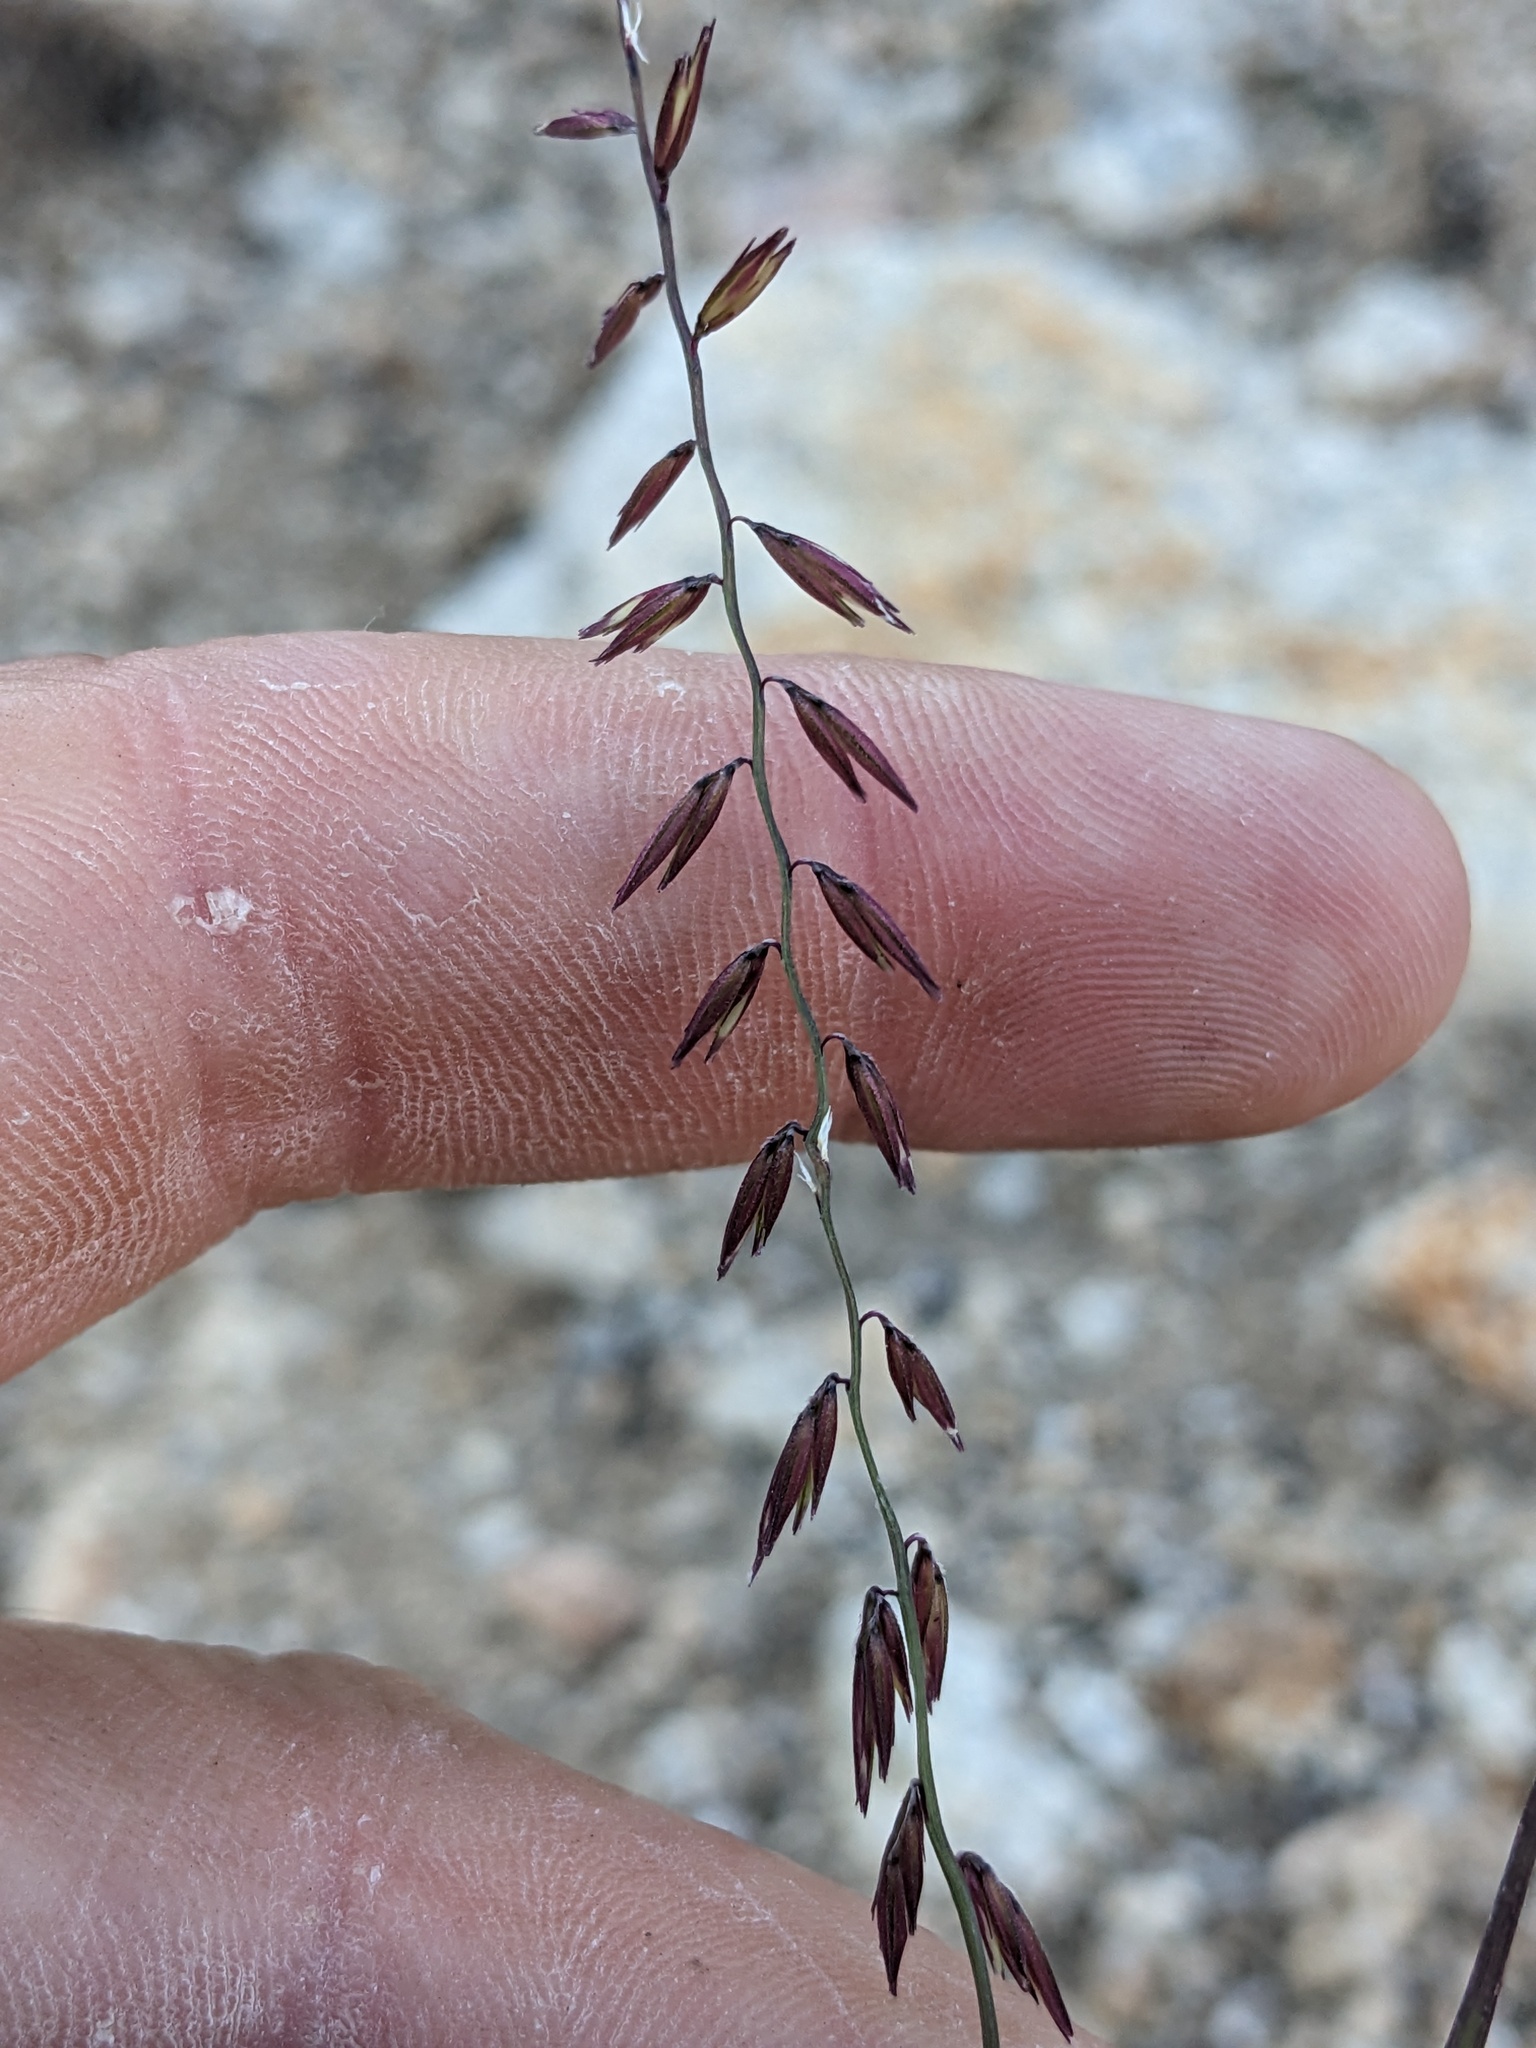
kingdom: Plantae
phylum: Tracheophyta
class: Liliopsida
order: Poales
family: Poaceae
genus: Bouteloua
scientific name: Bouteloua curtipendula
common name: Side-oats grama
